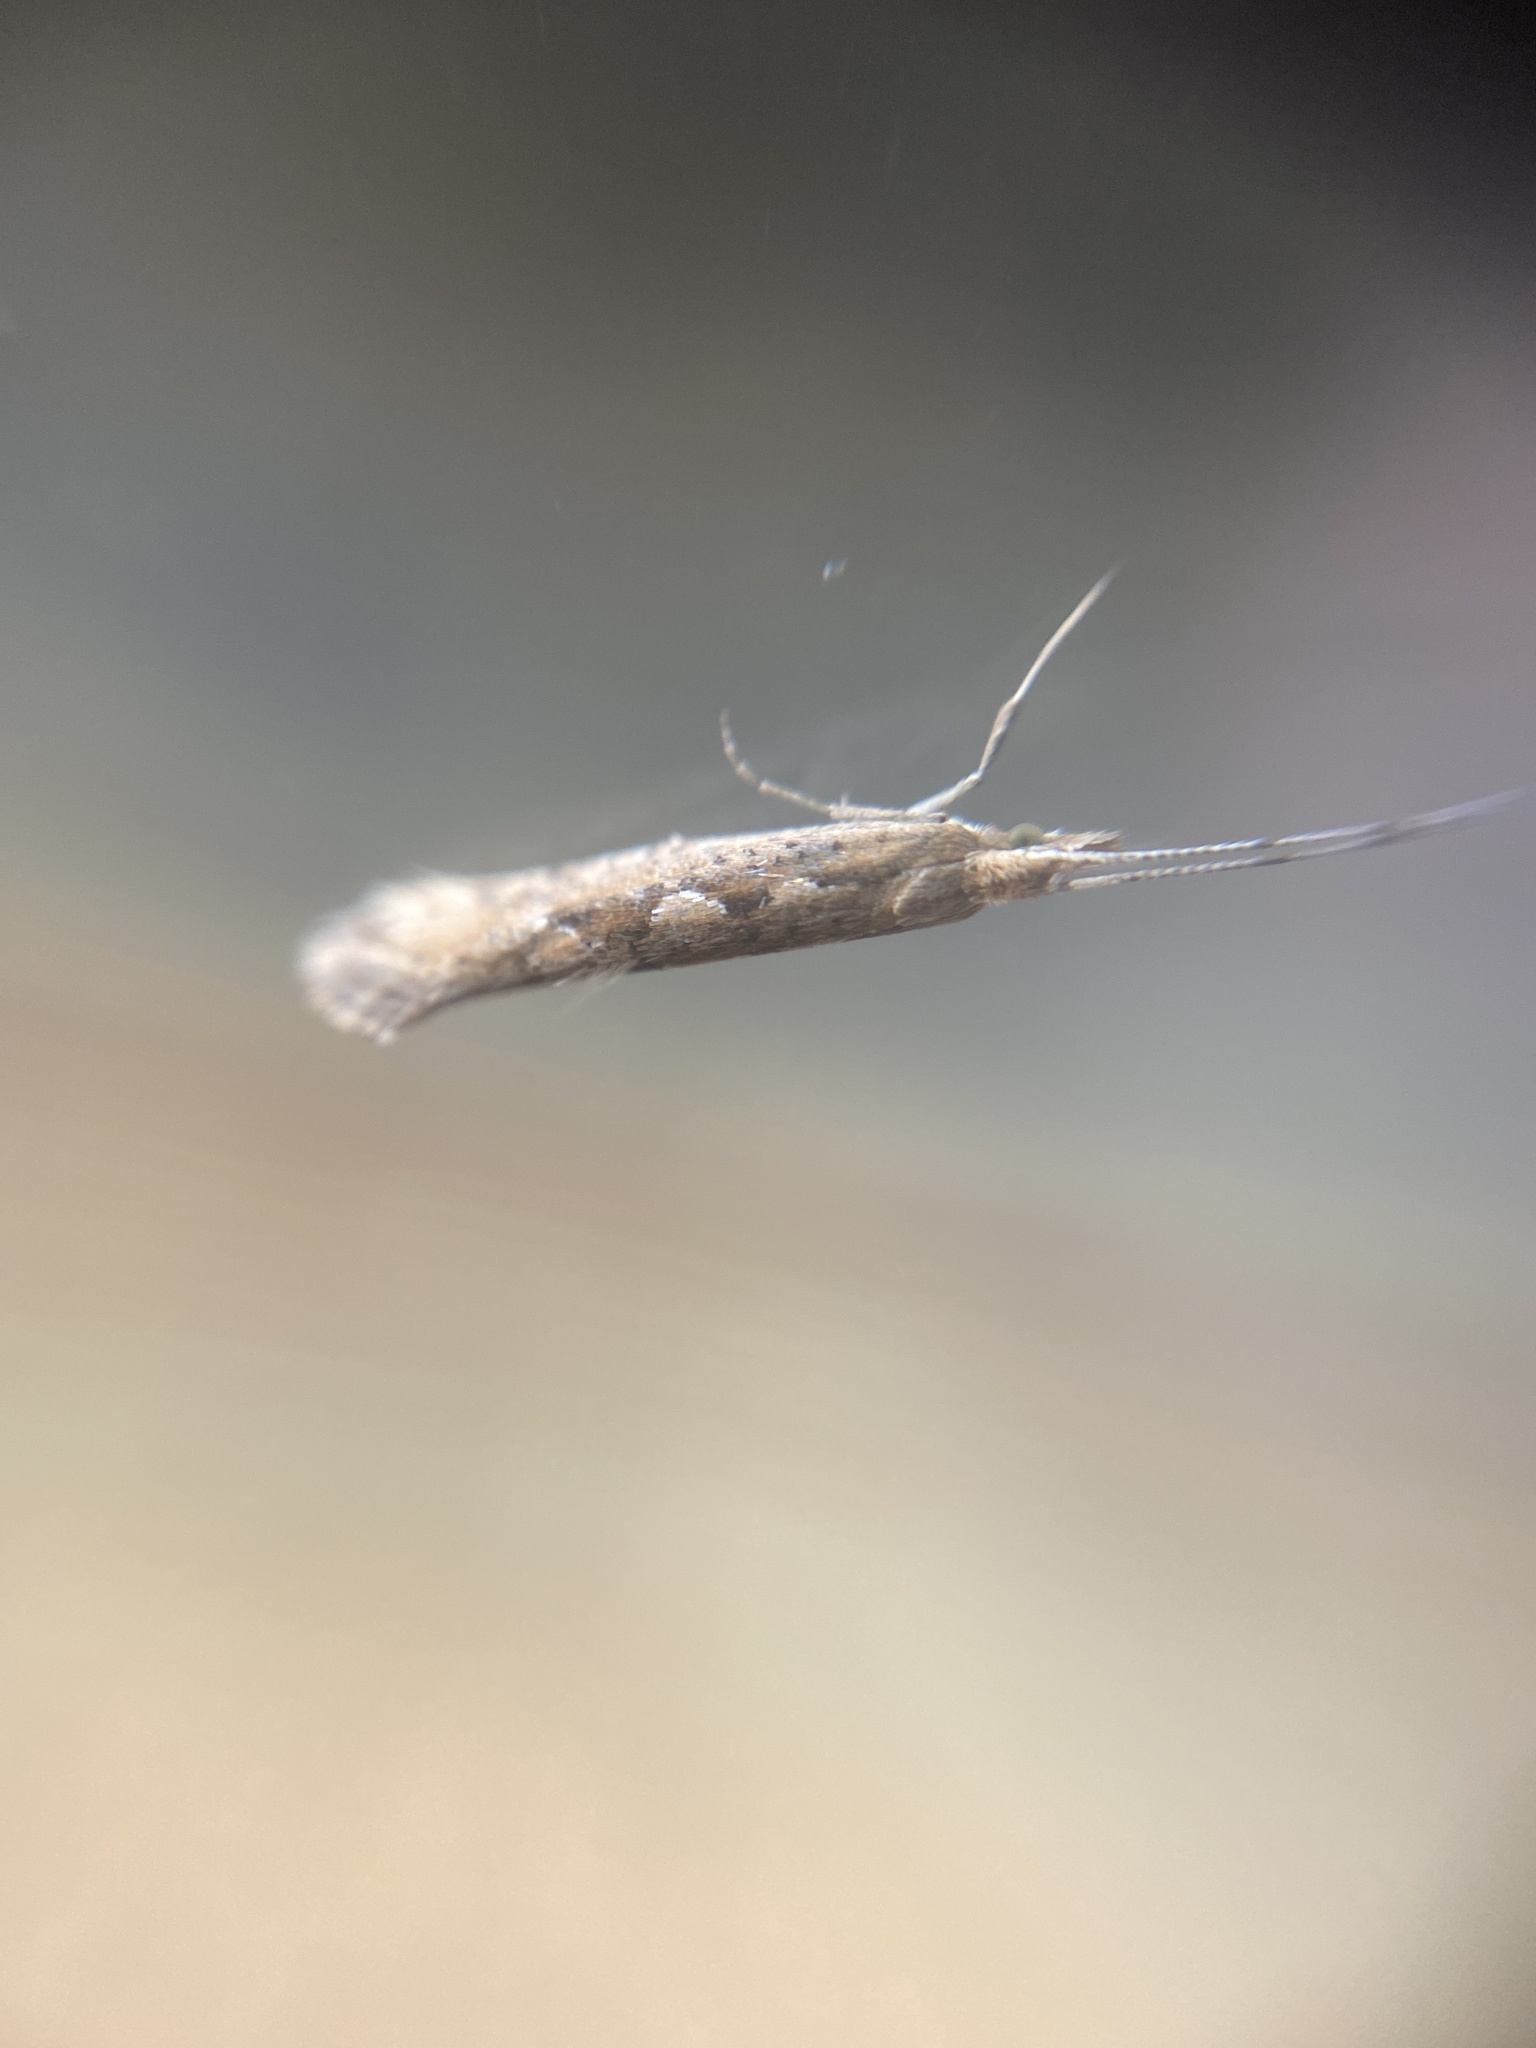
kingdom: Animalia
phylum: Arthropoda
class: Insecta
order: Lepidoptera
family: Plutellidae
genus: Plutella
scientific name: Plutella xylostella
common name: Diamond-back moth
